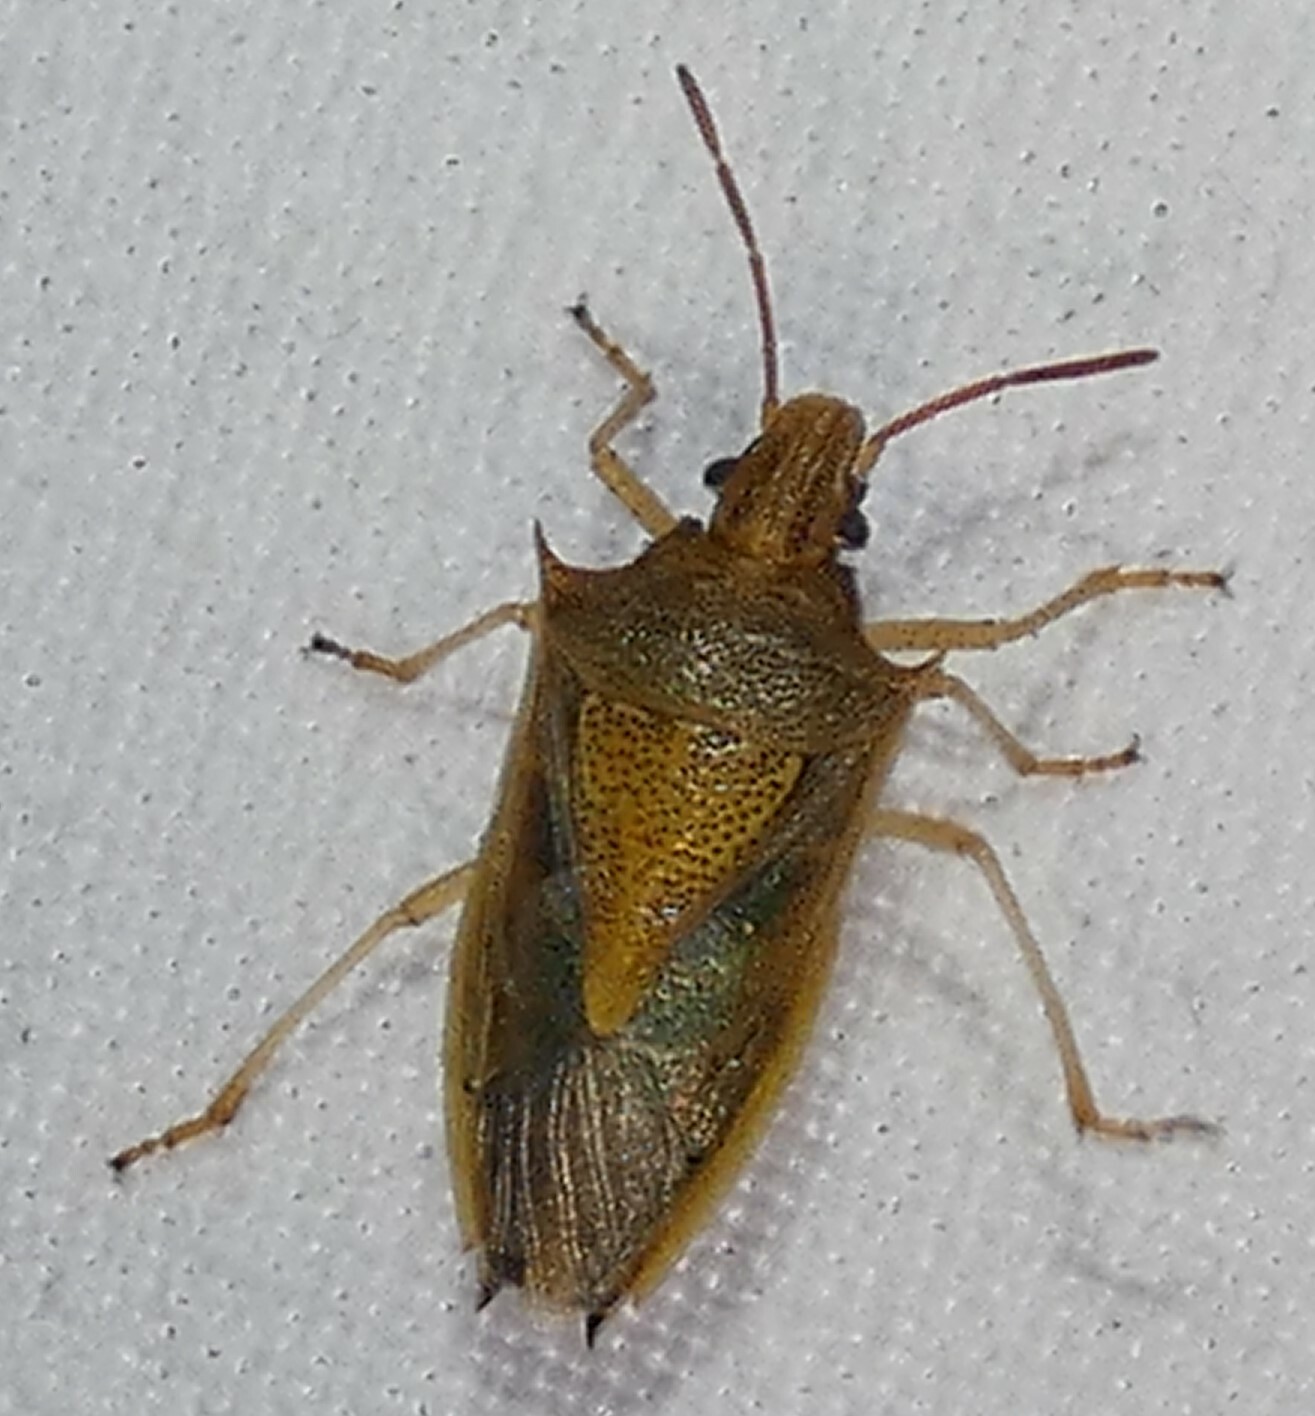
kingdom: Animalia
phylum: Arthropoda
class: Insecta
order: Hemiptera
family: Pentatomidae
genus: Oebalus
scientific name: Oebalus pugnax
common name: Rice stink bug
